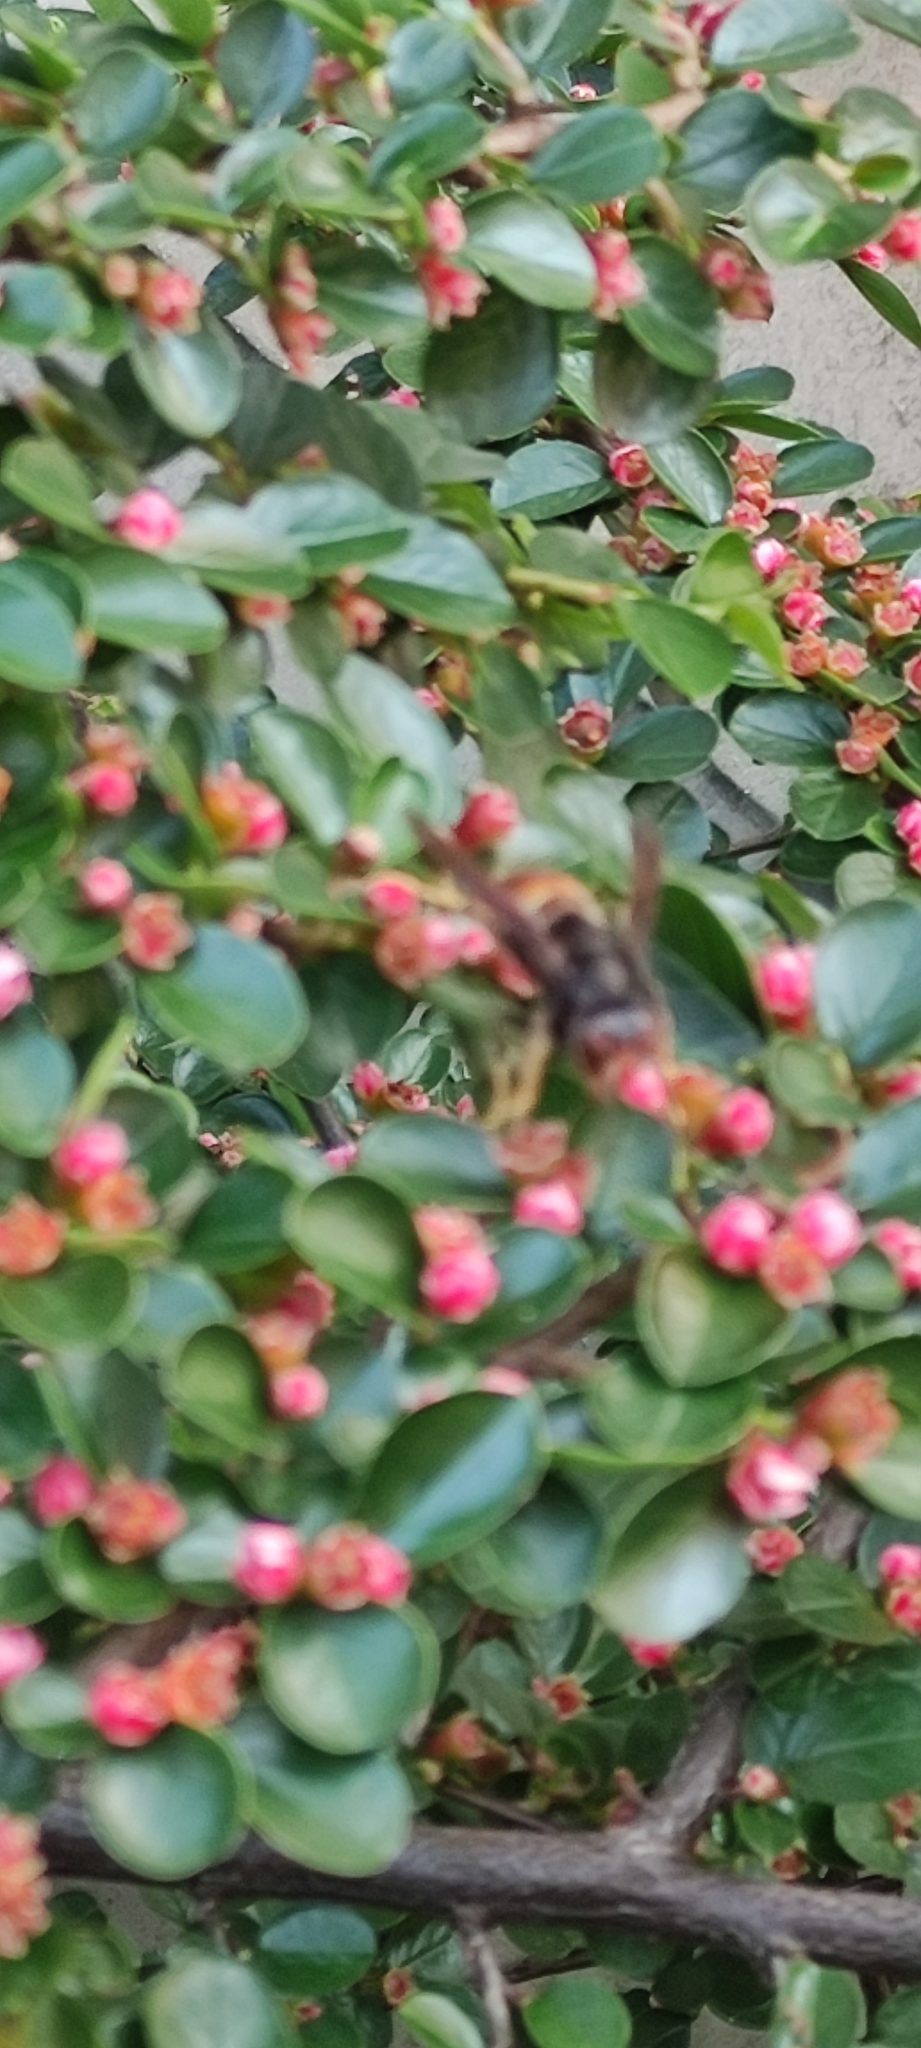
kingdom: Animalia
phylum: Arthropoda
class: Insecta
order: Hymenoptera
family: Vespidae
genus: Vespa
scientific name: Vespa velutina
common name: Asian hornet
